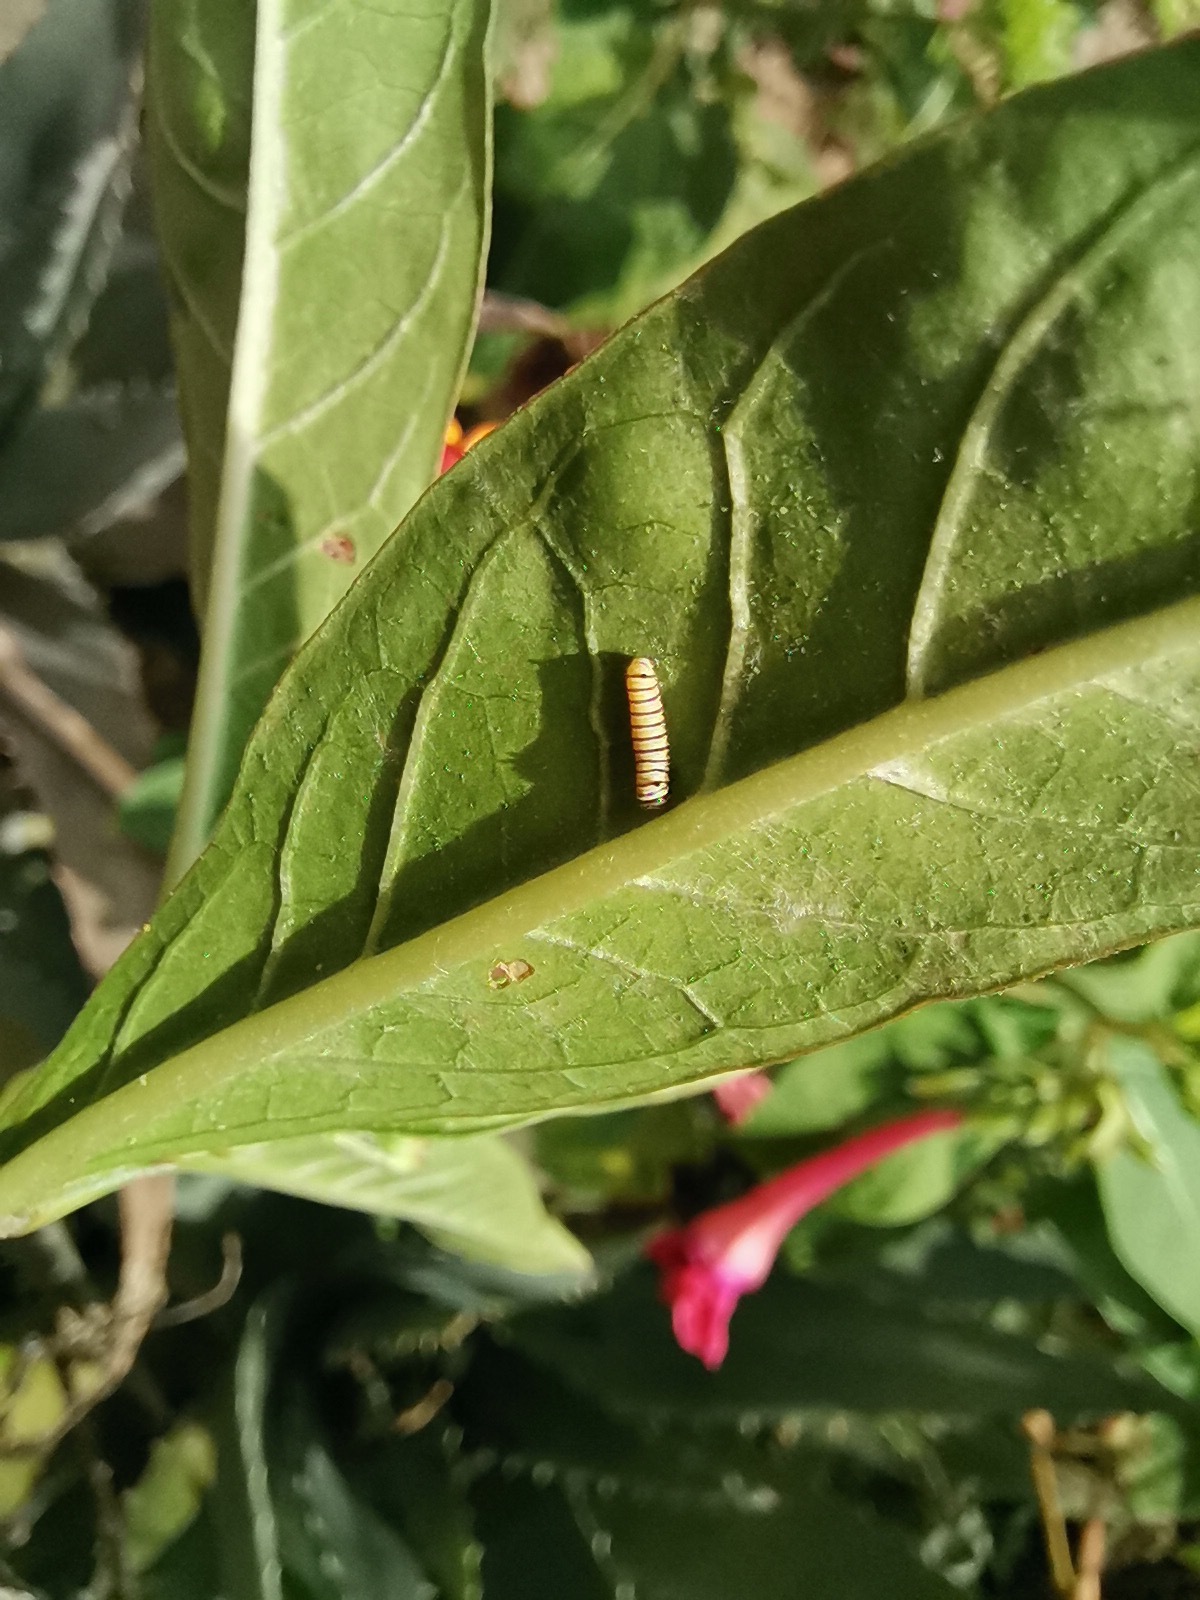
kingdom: Animalia
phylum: Arthropoda
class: Insecta
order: Lepidoptera
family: Nymphalidae
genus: Danaus
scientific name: Danaus plexippus
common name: Monarch
